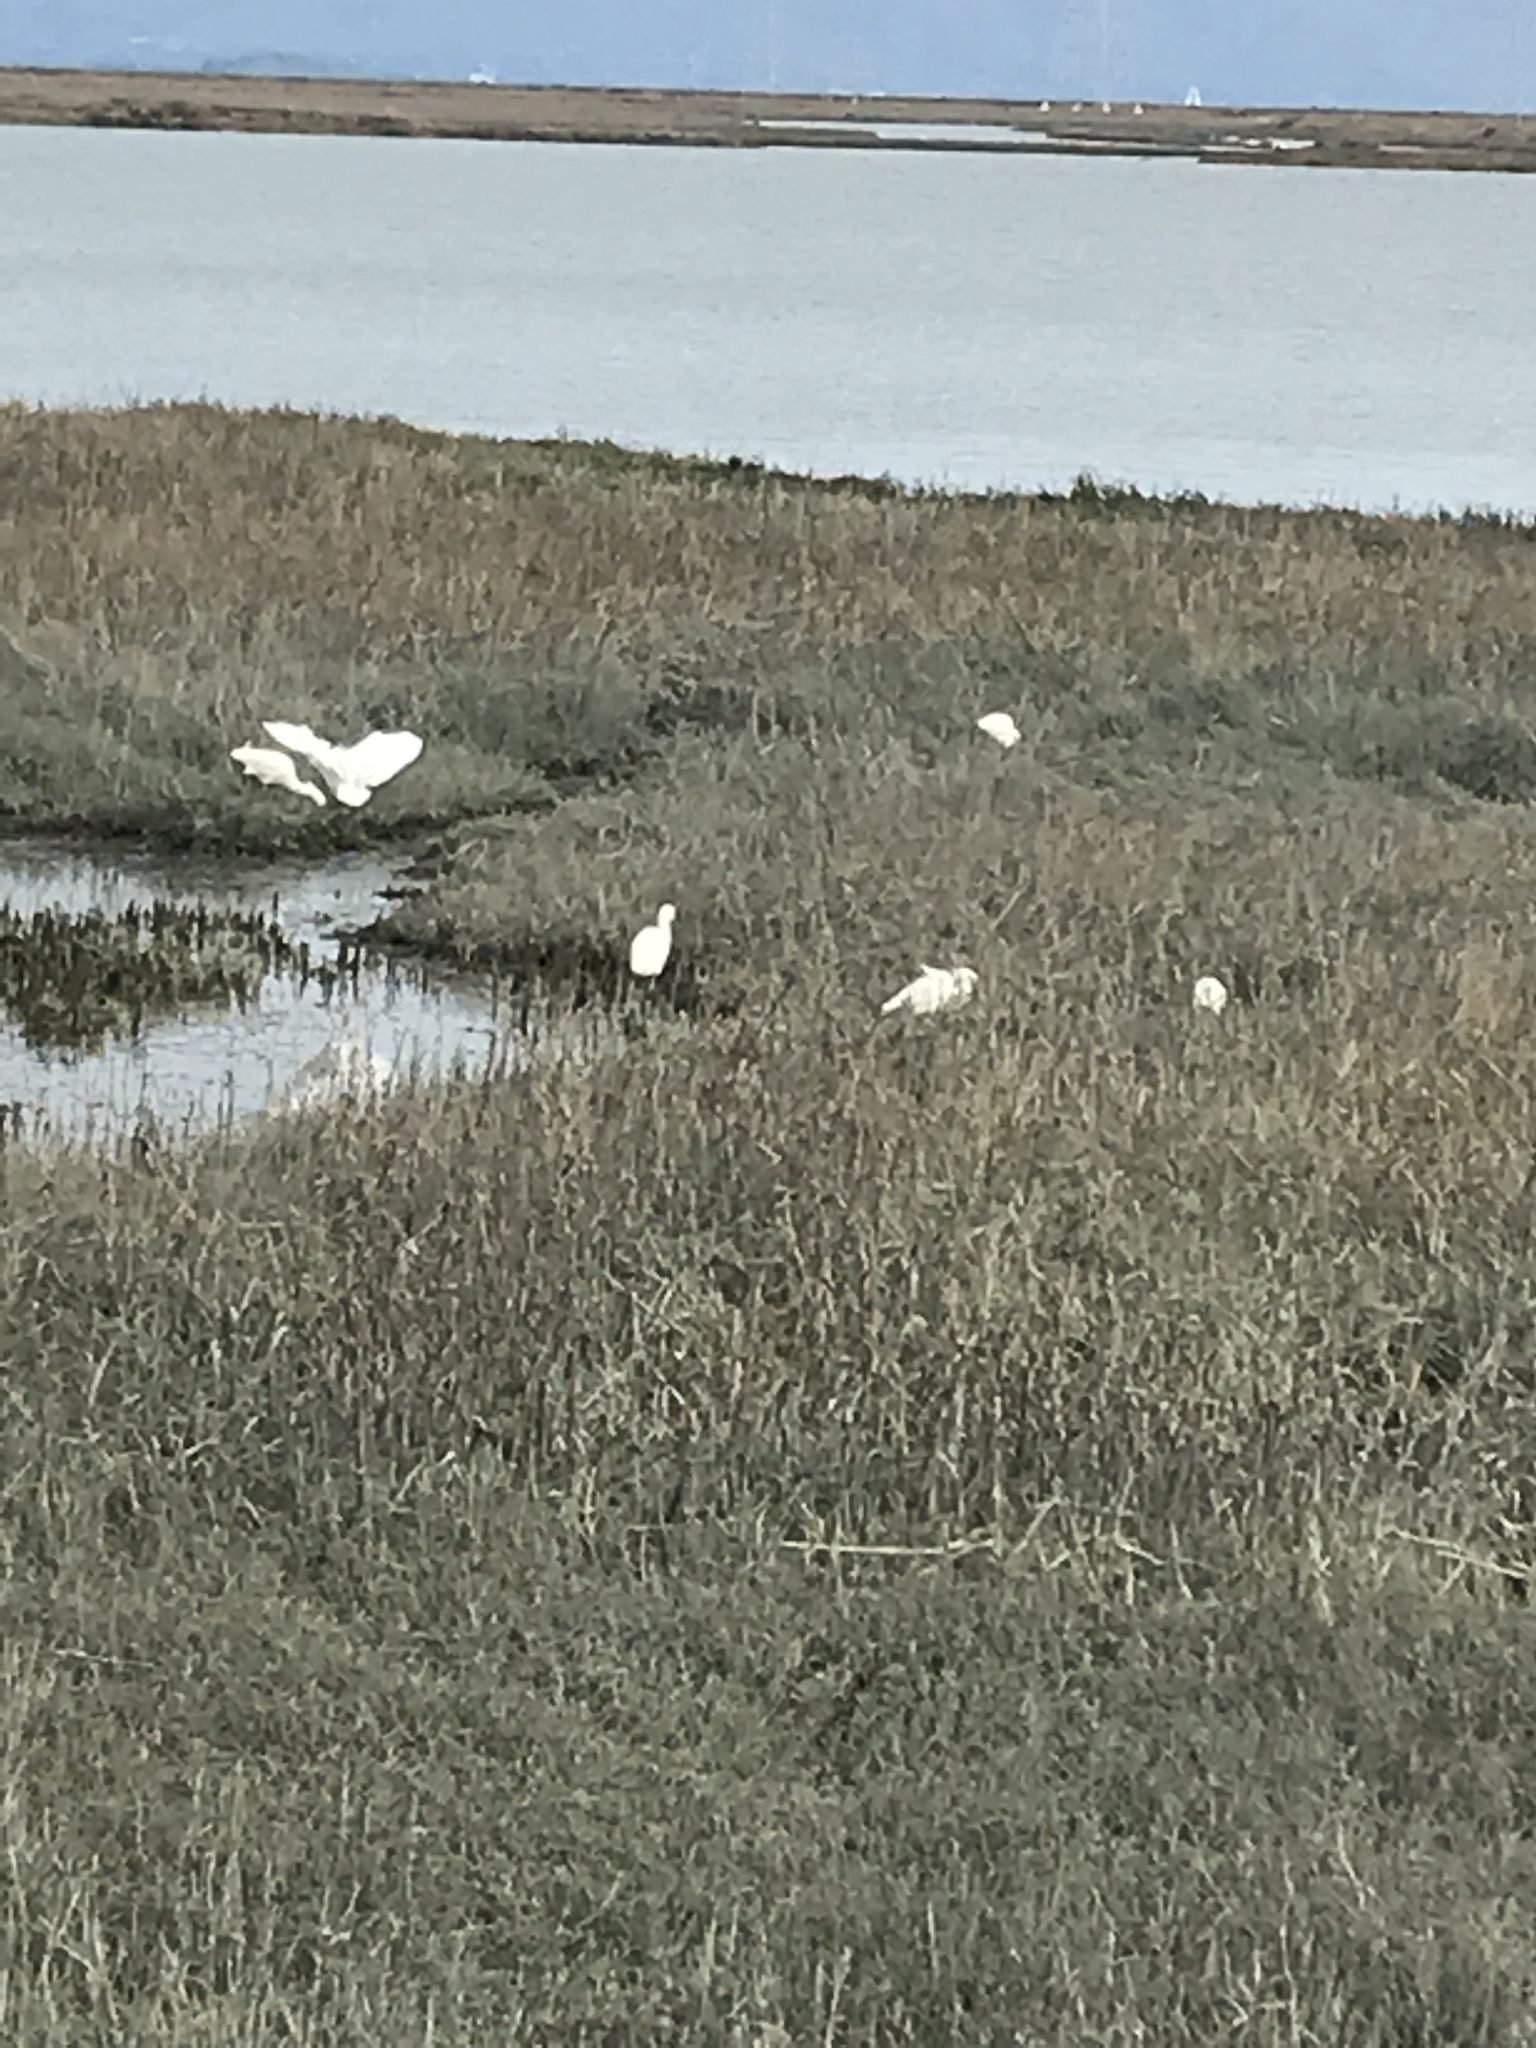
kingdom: Animalia
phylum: Chordata
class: Aves
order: Pelecaniformes
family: Ardeidae
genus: Egretta
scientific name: Egretta thula
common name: Snowy egret
